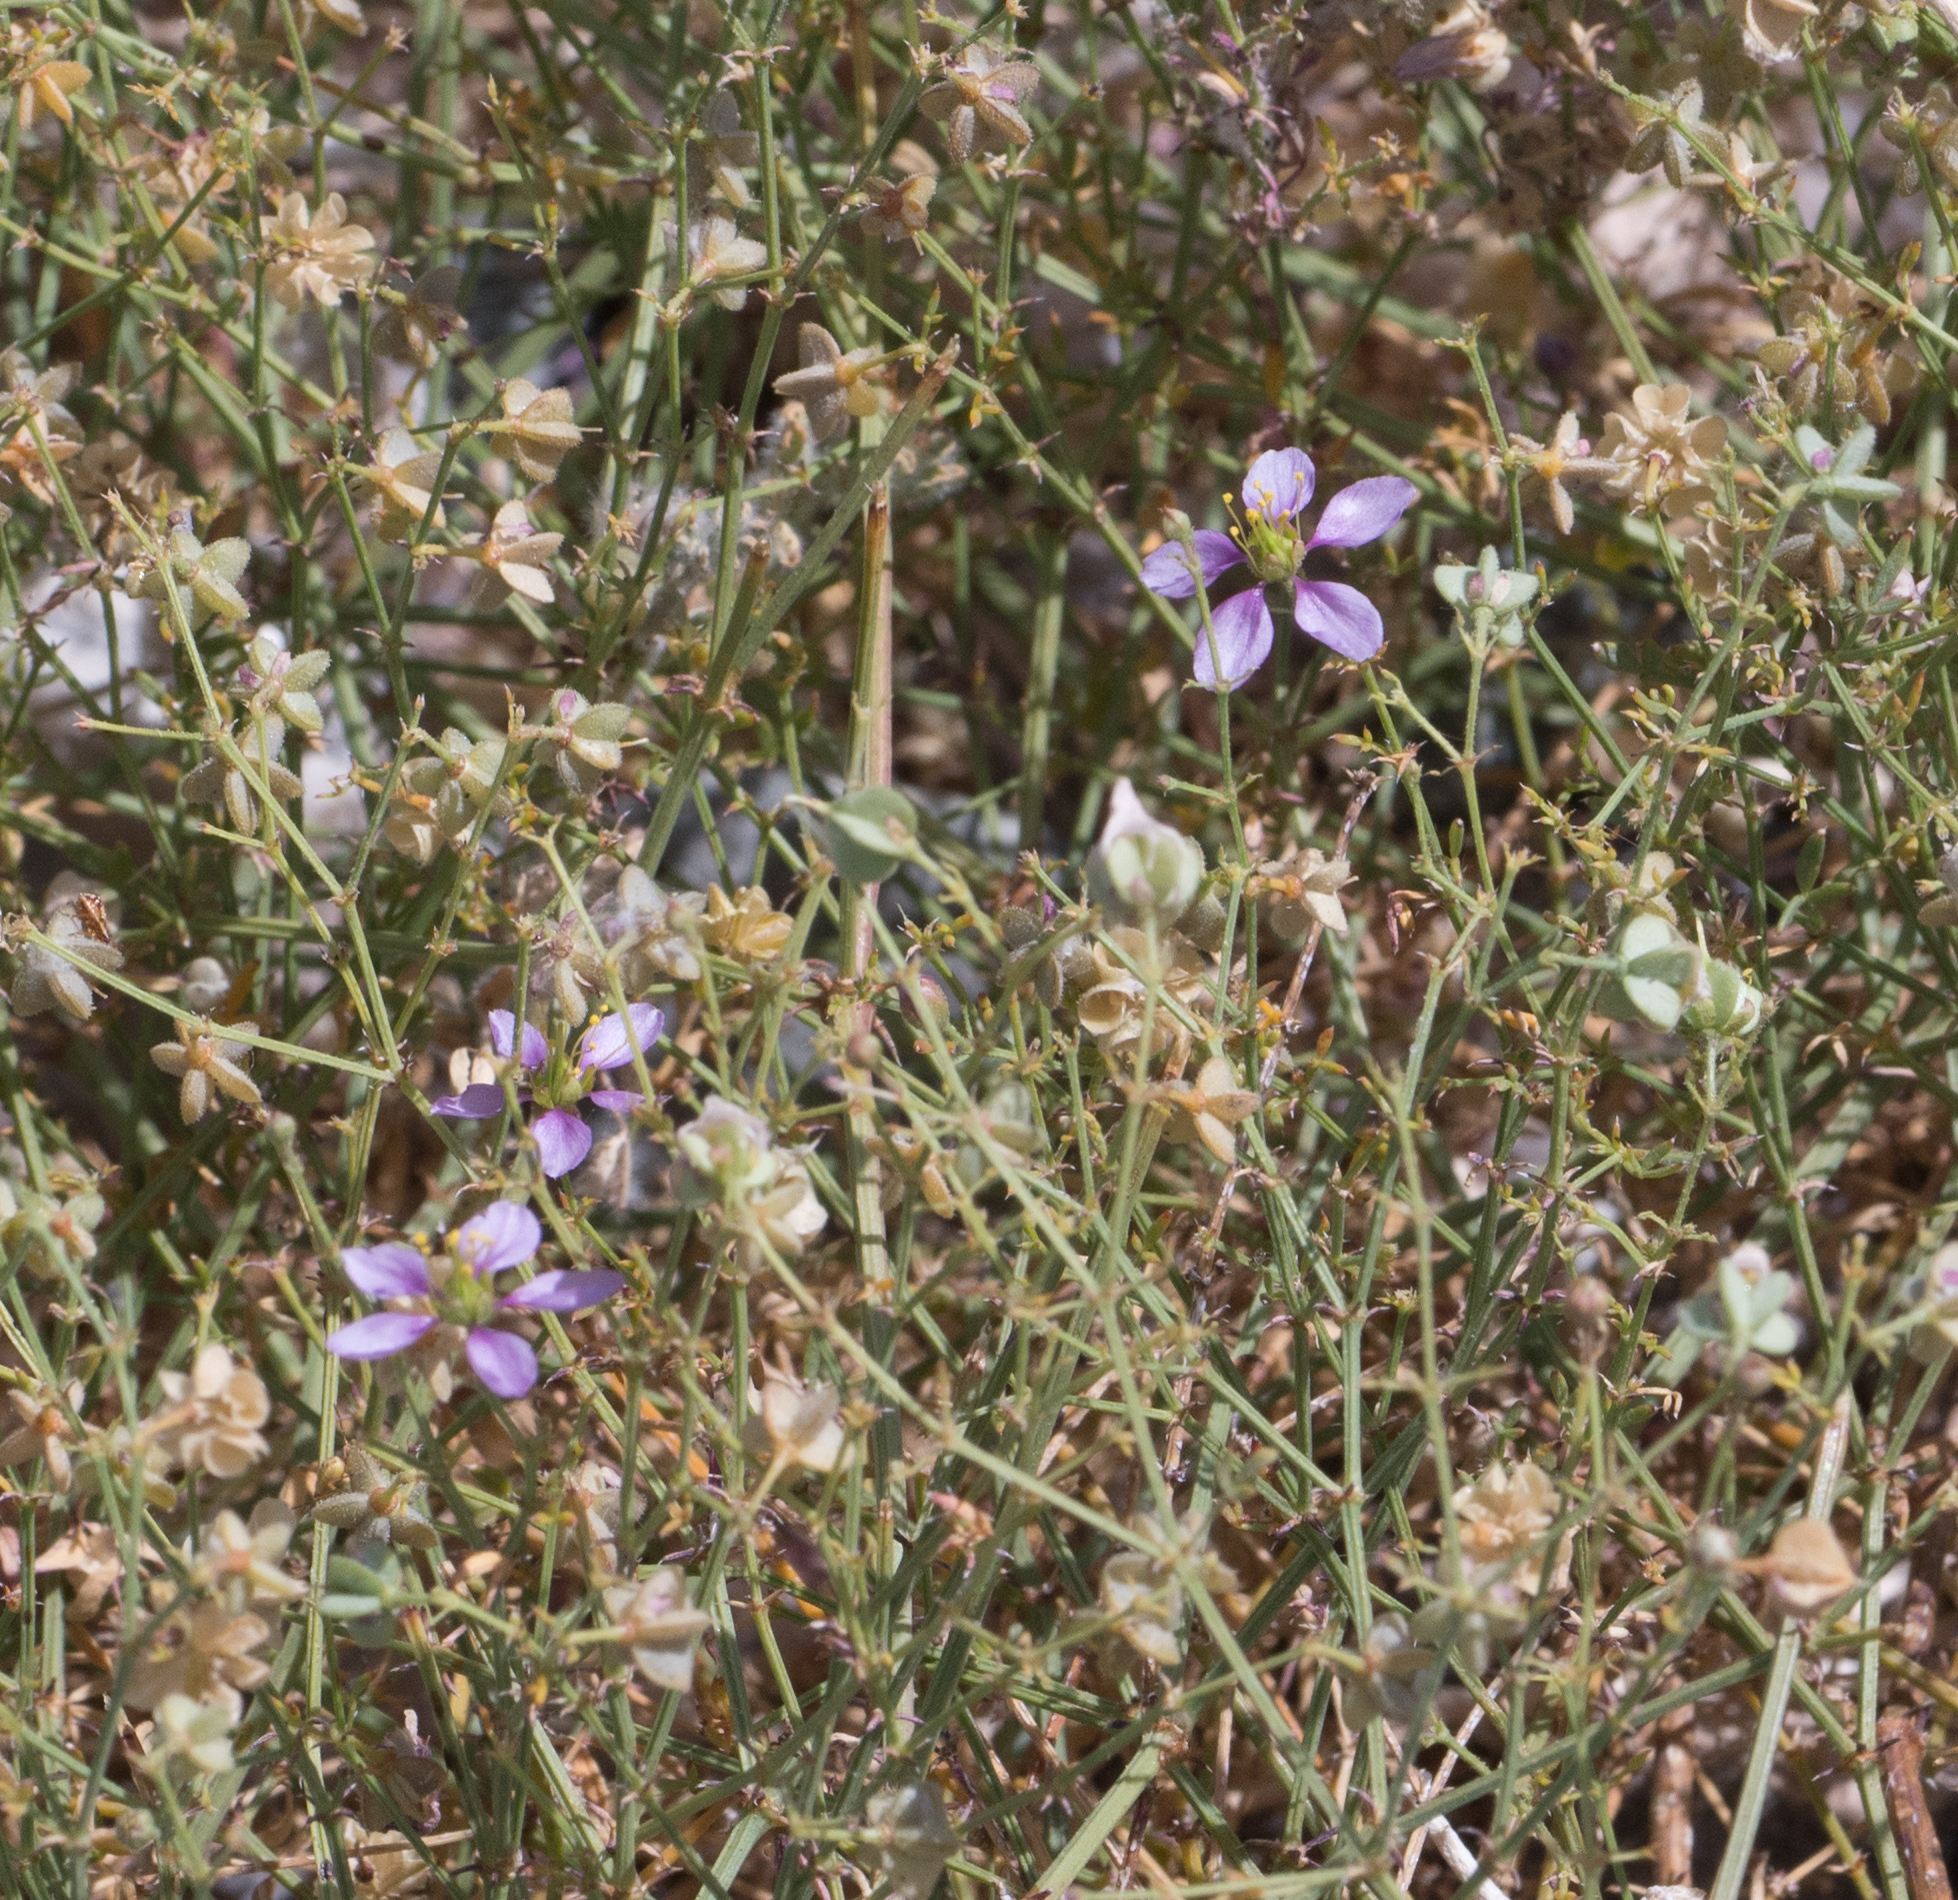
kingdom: Plantae
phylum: Tracheophyta
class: Magnoliopsida
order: Zygophyllales
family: Zygophyllaceae
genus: Fagonia
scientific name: Fagonia laevis
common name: California fagonbush
